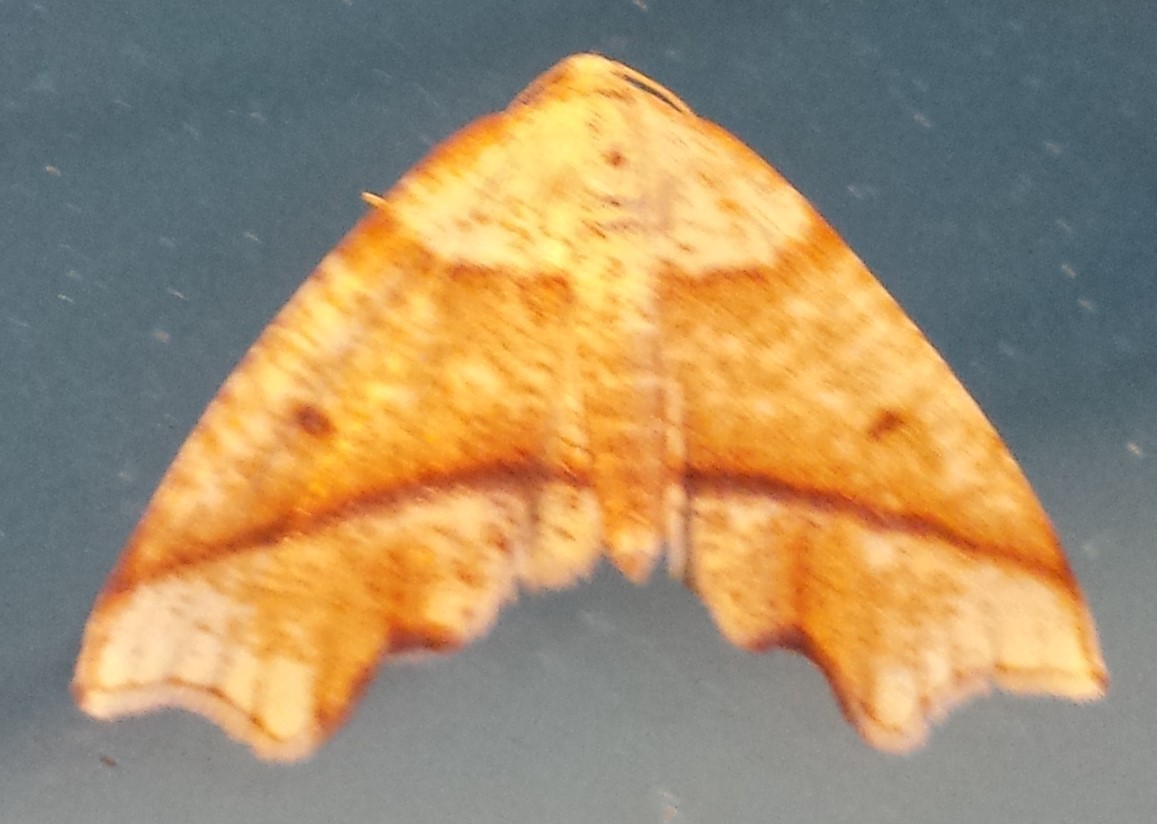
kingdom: Animalia
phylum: Arthropoda
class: Insecta
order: Lepidoptera
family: Geometridae
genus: Plagodis
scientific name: Plagodis alcoolaria
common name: Hollow-spotted plagodis
